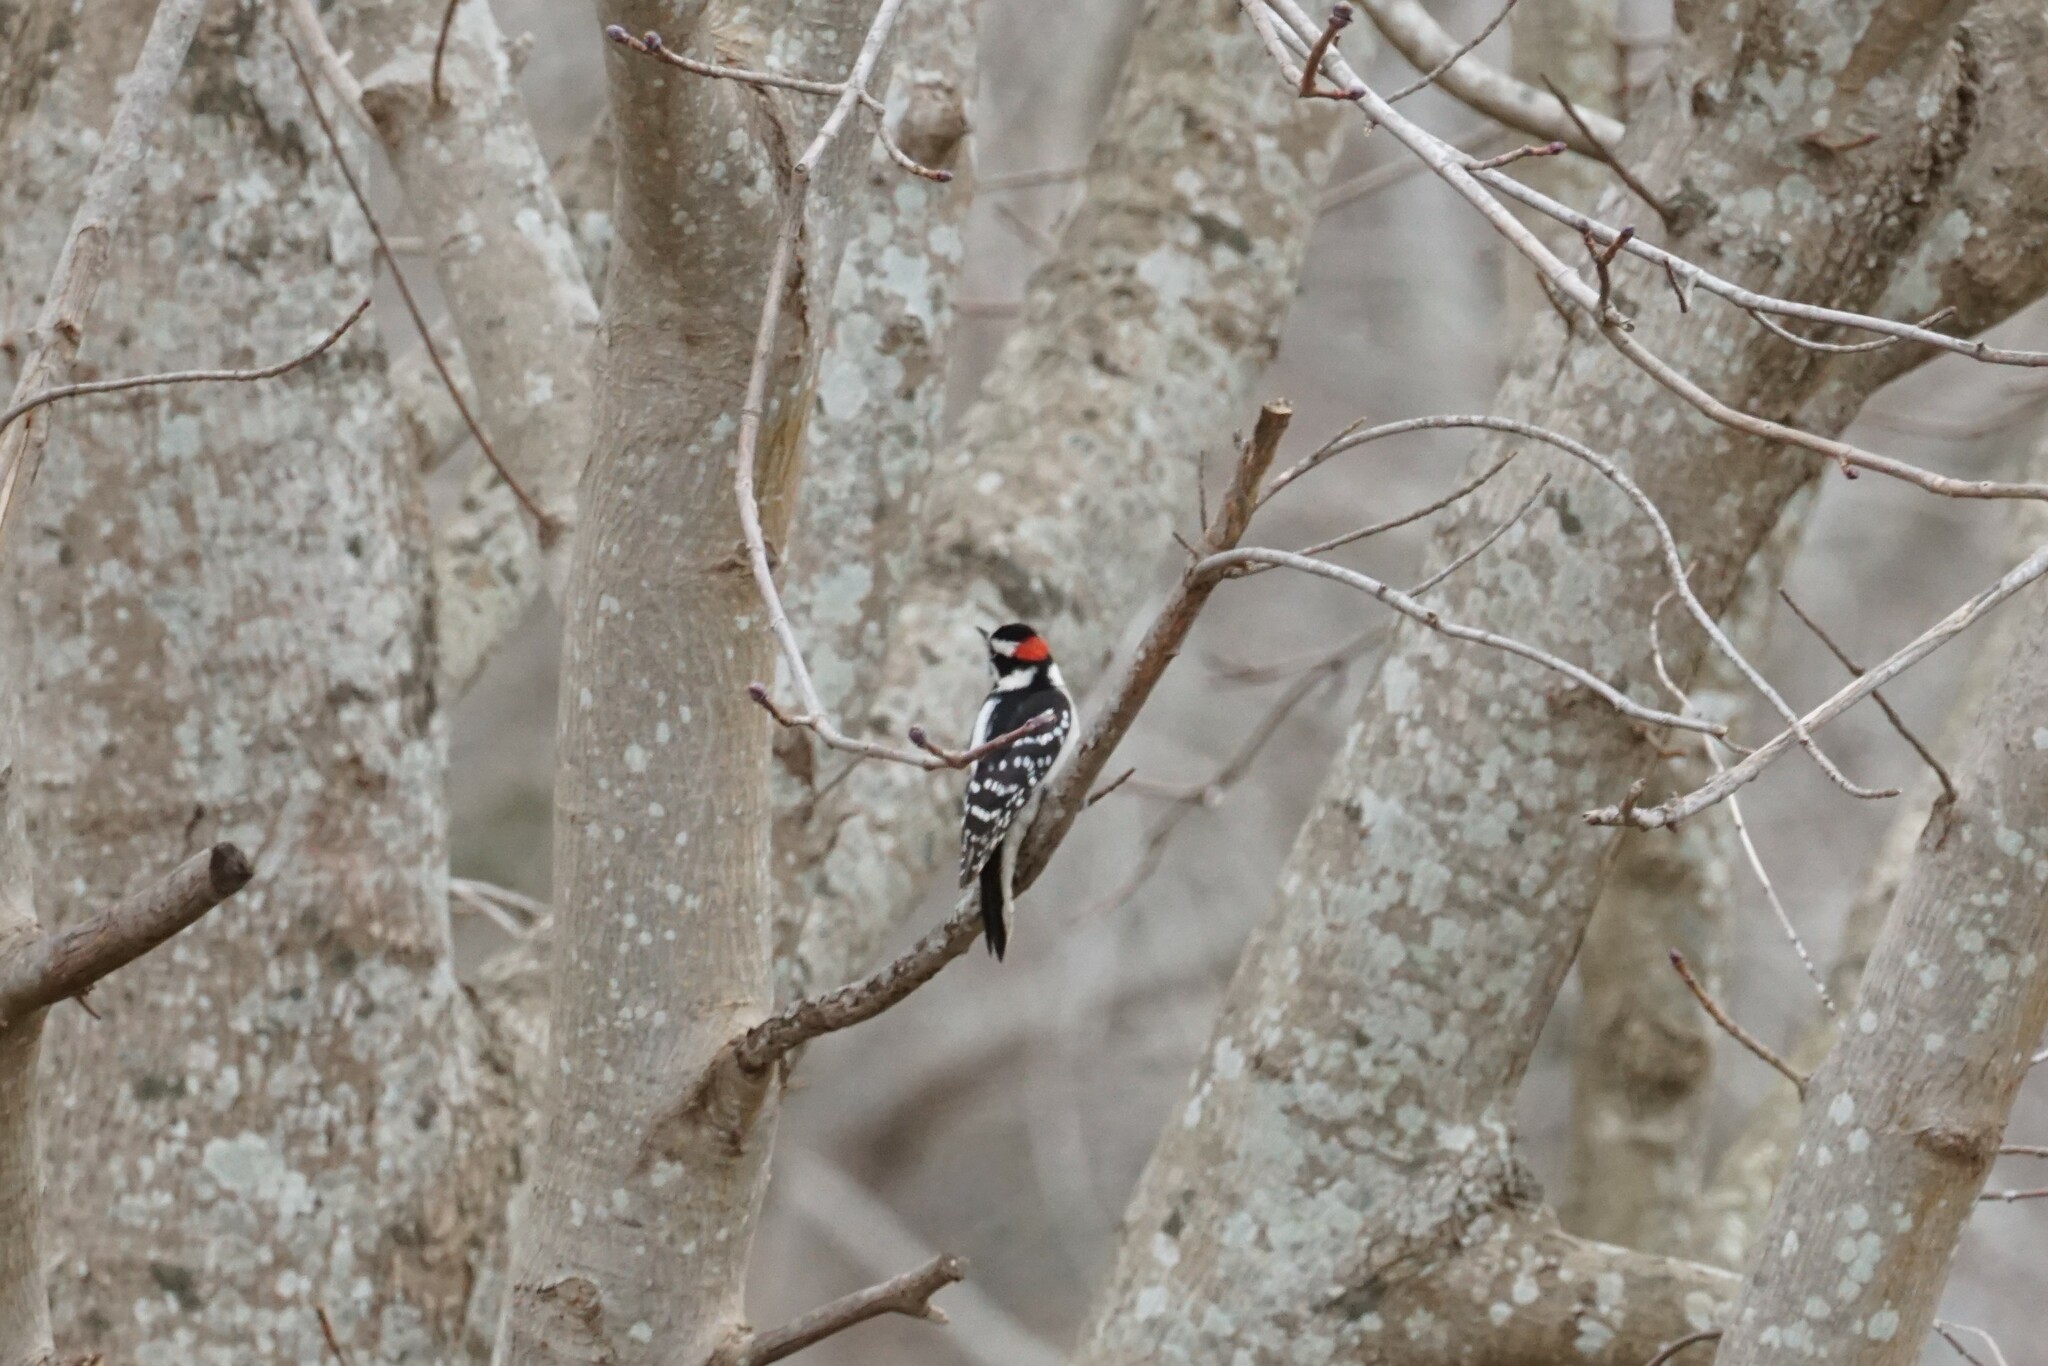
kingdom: Animalia
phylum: Chordata
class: Aves
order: Piciformes
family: Picidae
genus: Dryobates
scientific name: Dryobates pubescens
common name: Downy woodpecker
